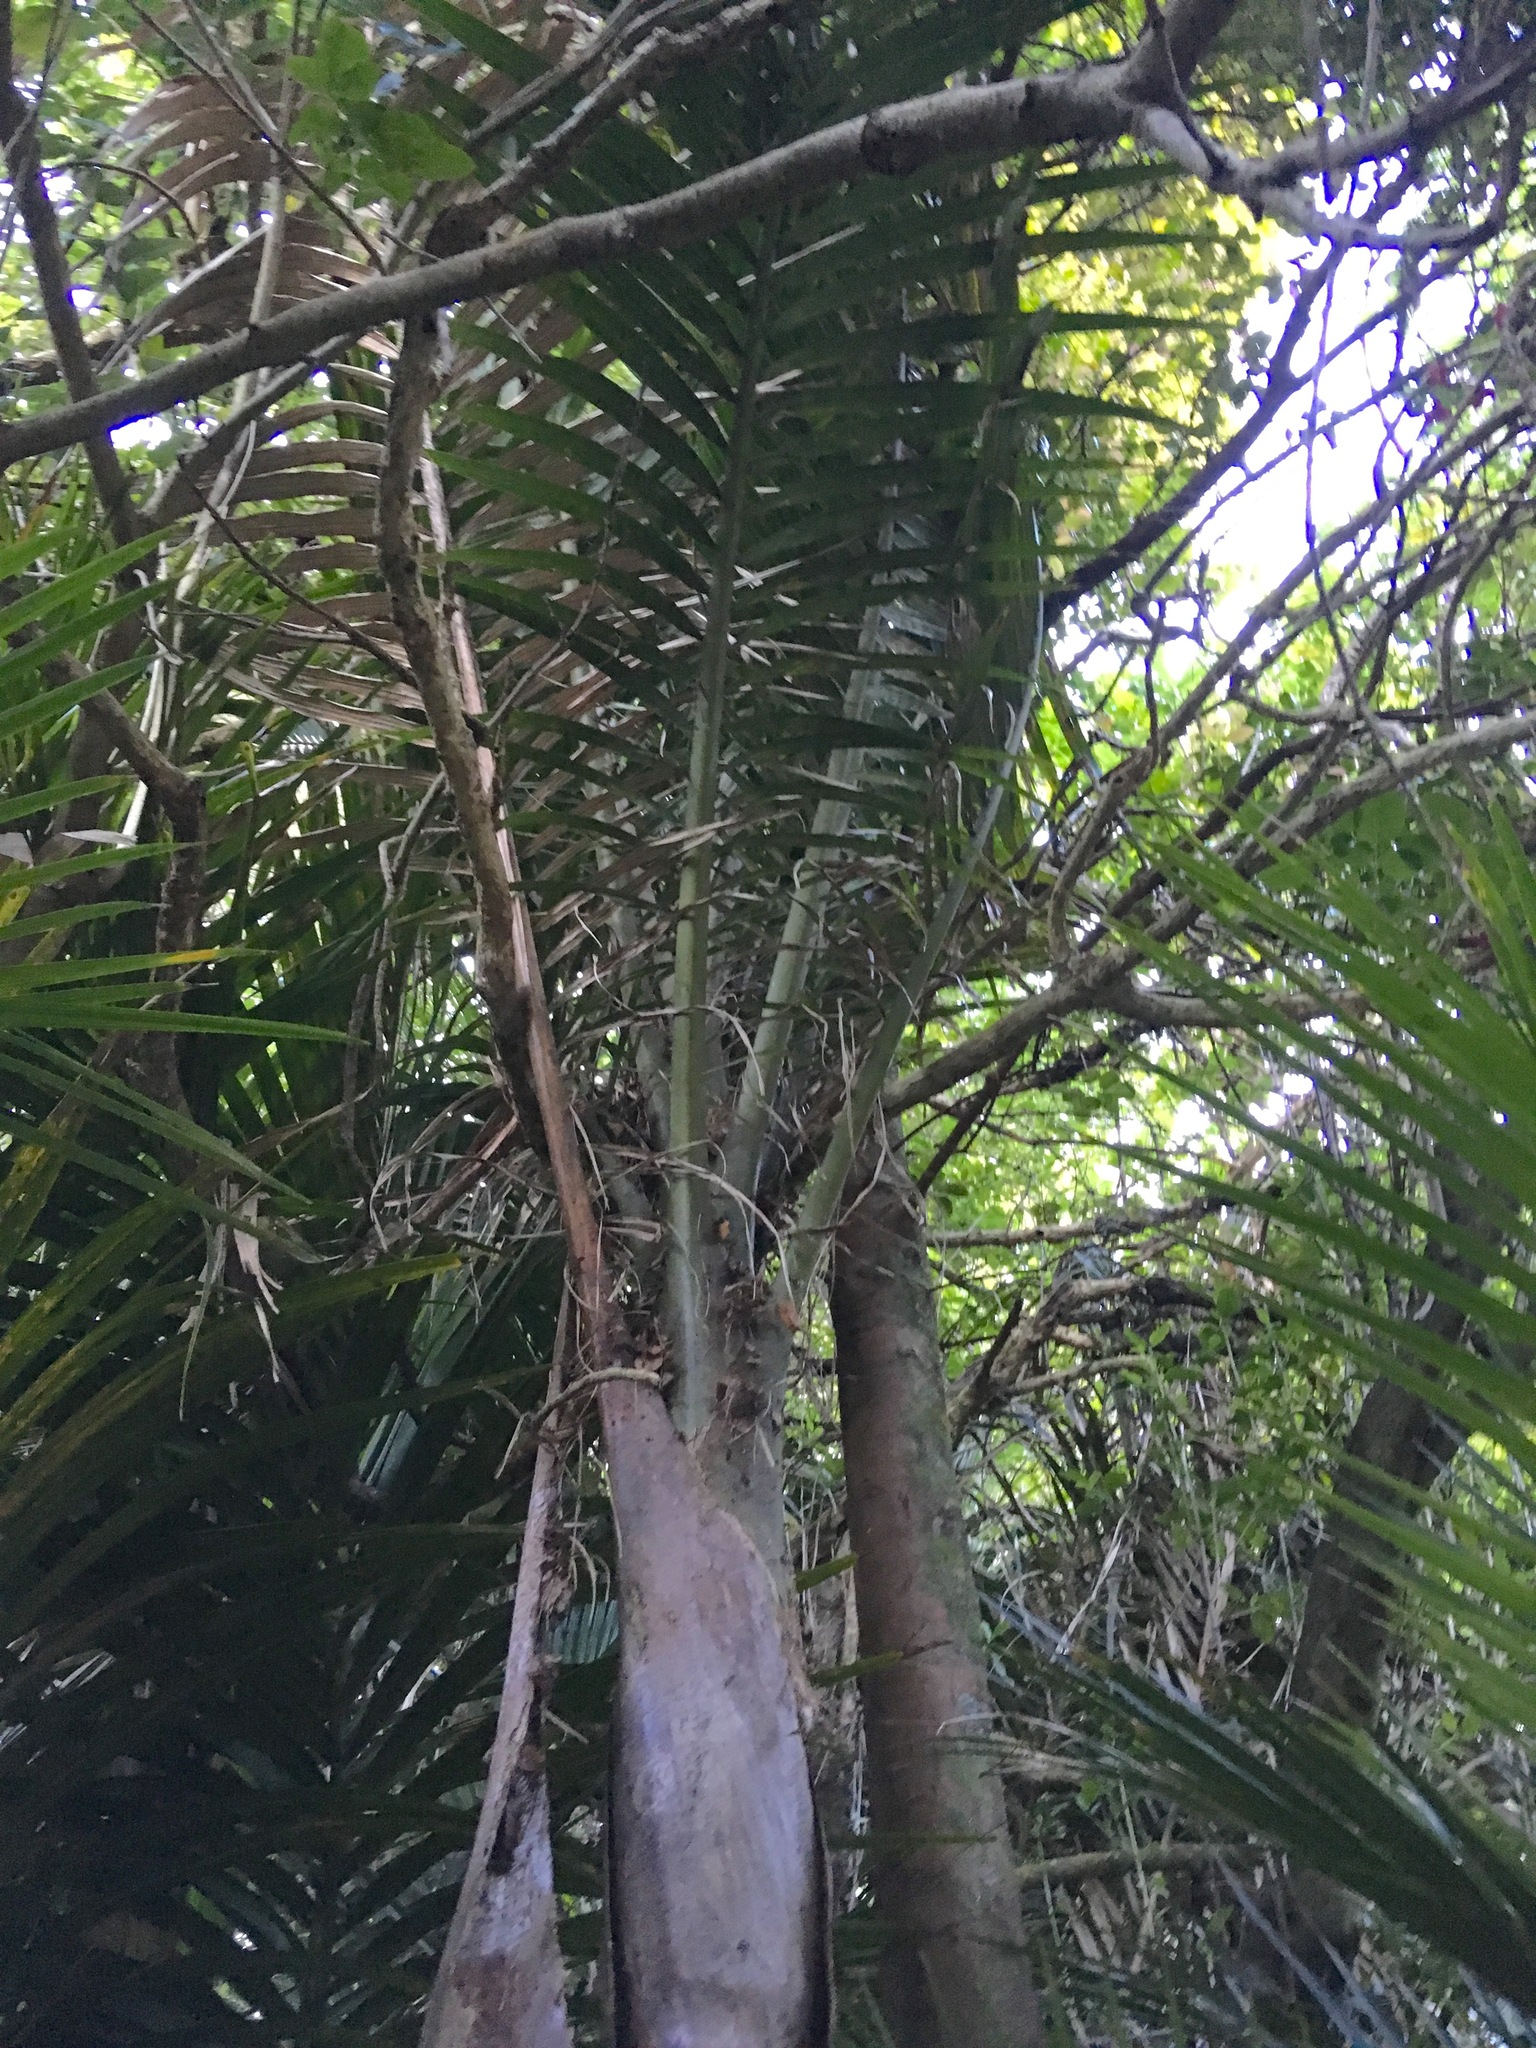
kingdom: Plantae
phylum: Tracheophyta
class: Liliopsida
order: Arecales
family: Arecaceae
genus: Rhopalostylis
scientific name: Rhopalostylis sapida
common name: Feather-duster palm
